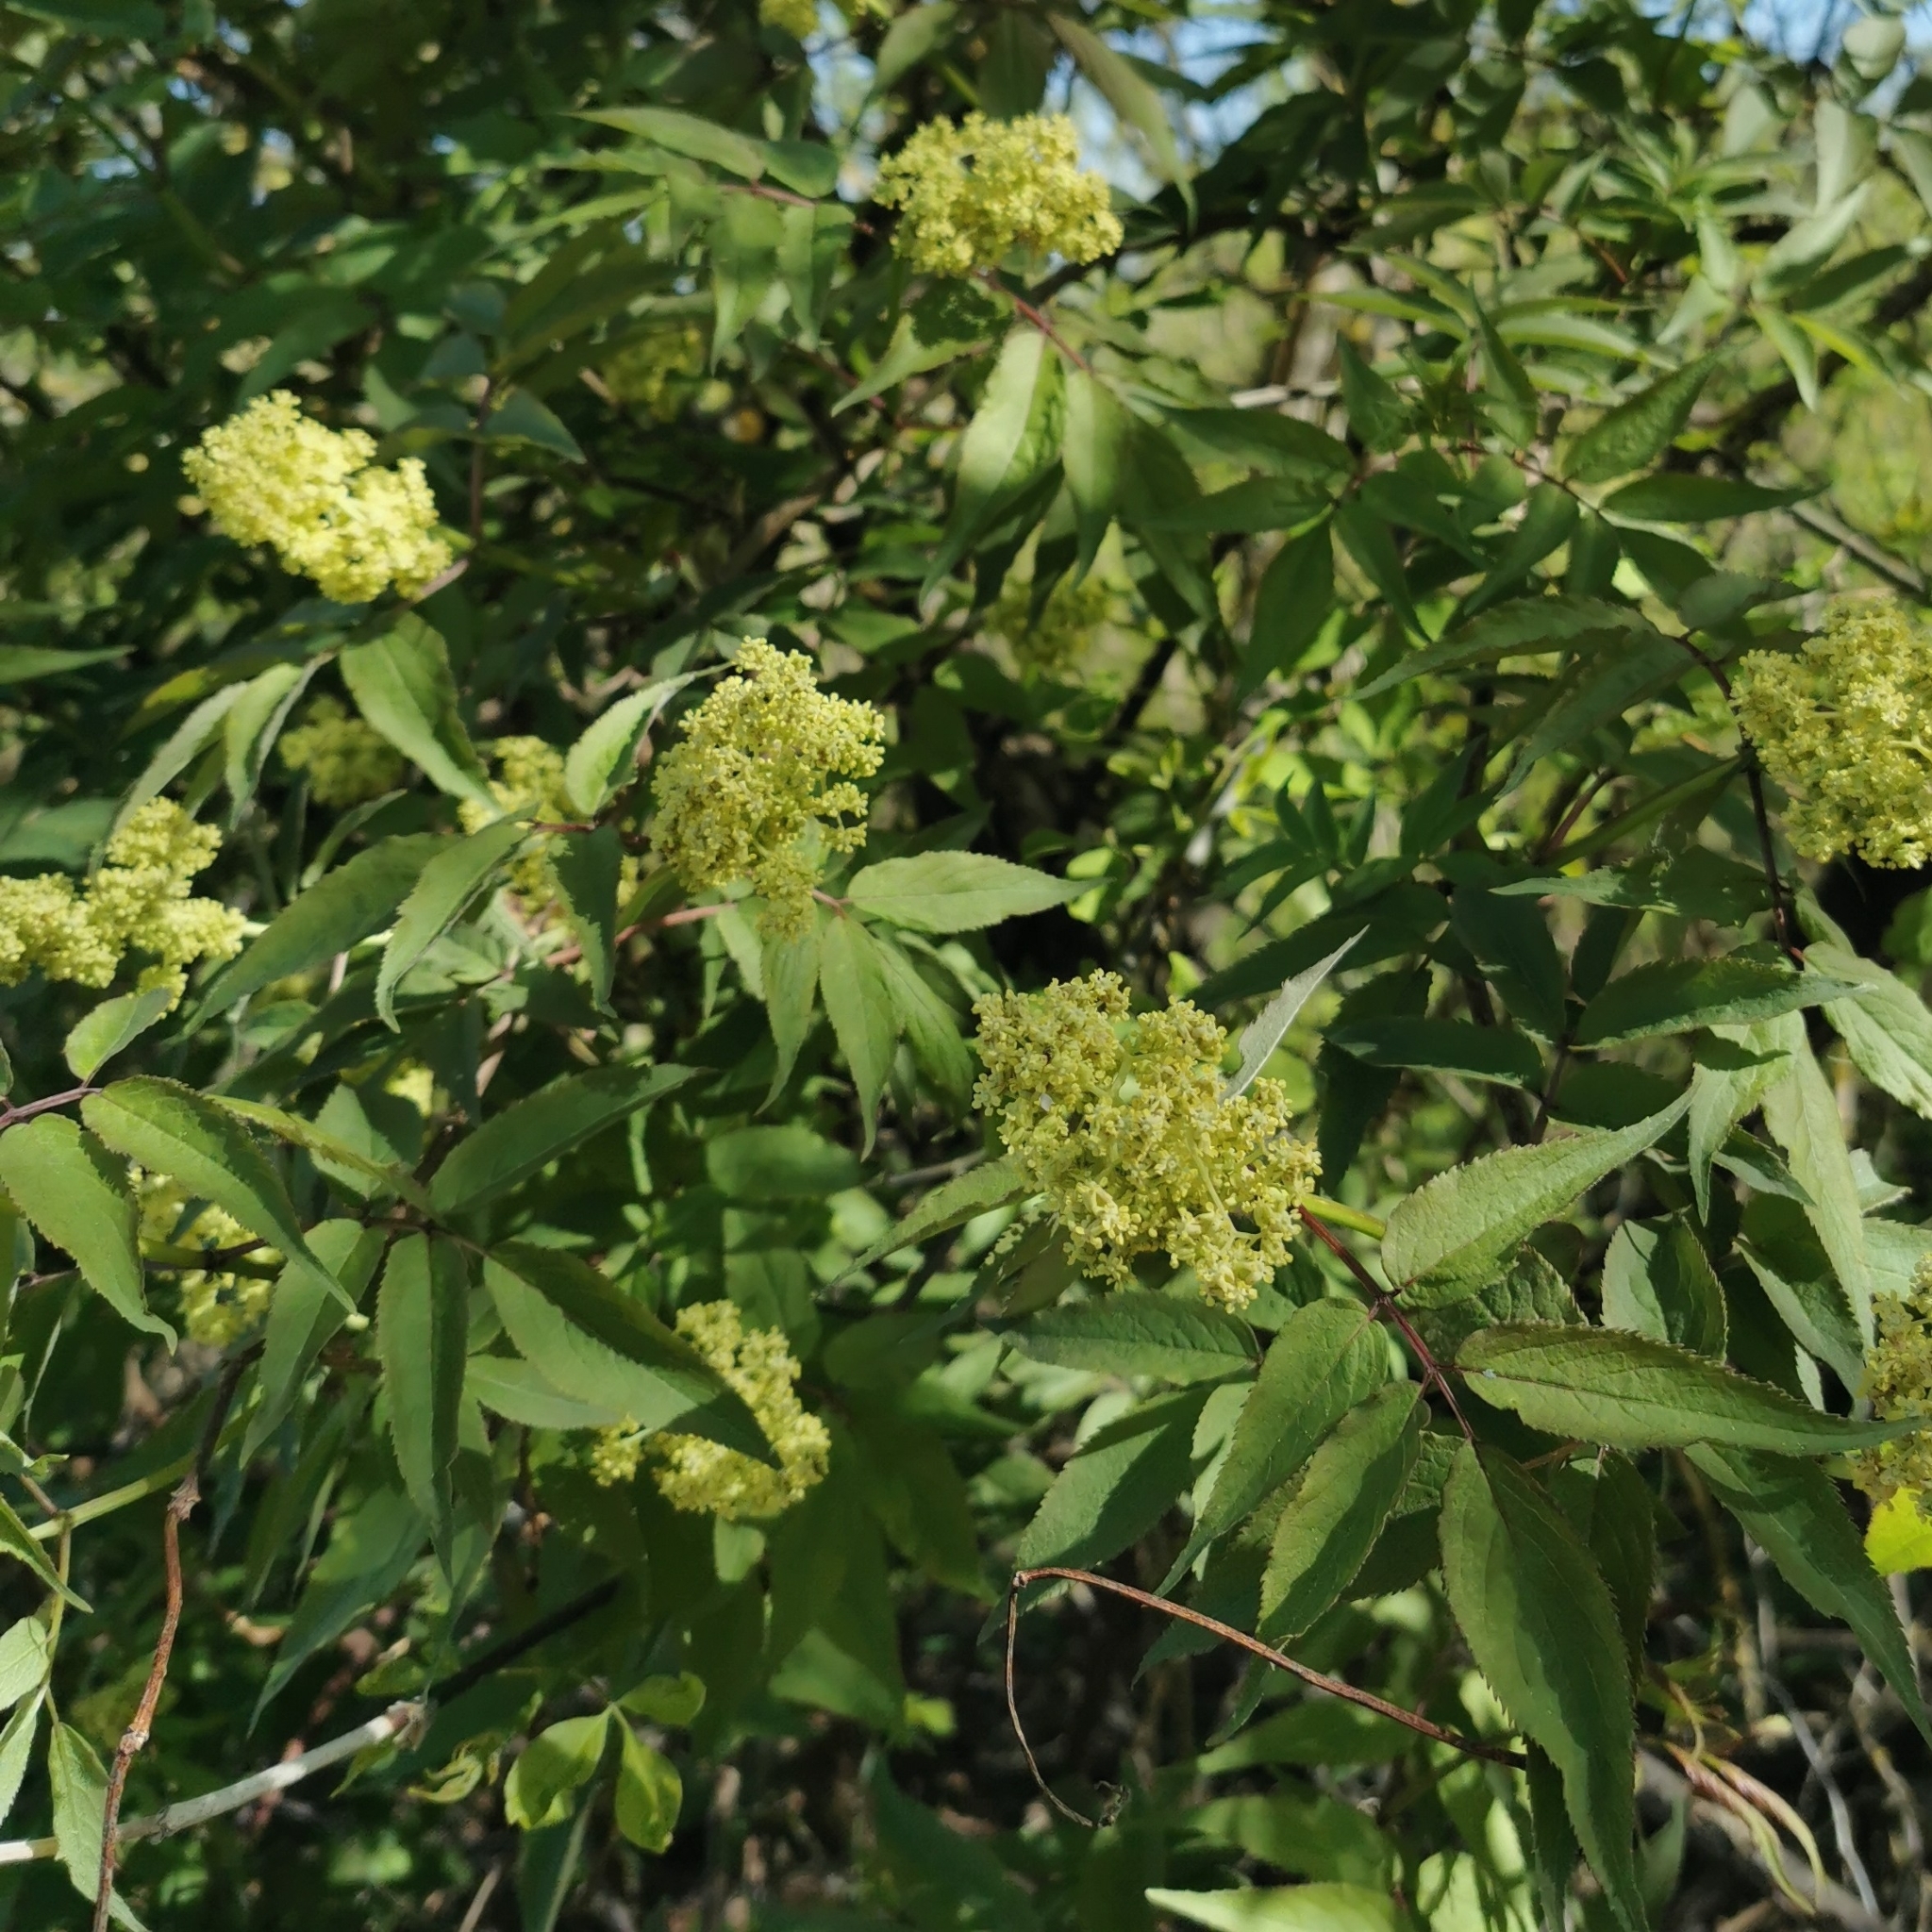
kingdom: Plantae
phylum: Tracheophyta
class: Magnoliopsida
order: Dipsacales
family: Viburnaceae
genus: Sambucus
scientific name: Sambucus racemosa
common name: Red-berried elder
